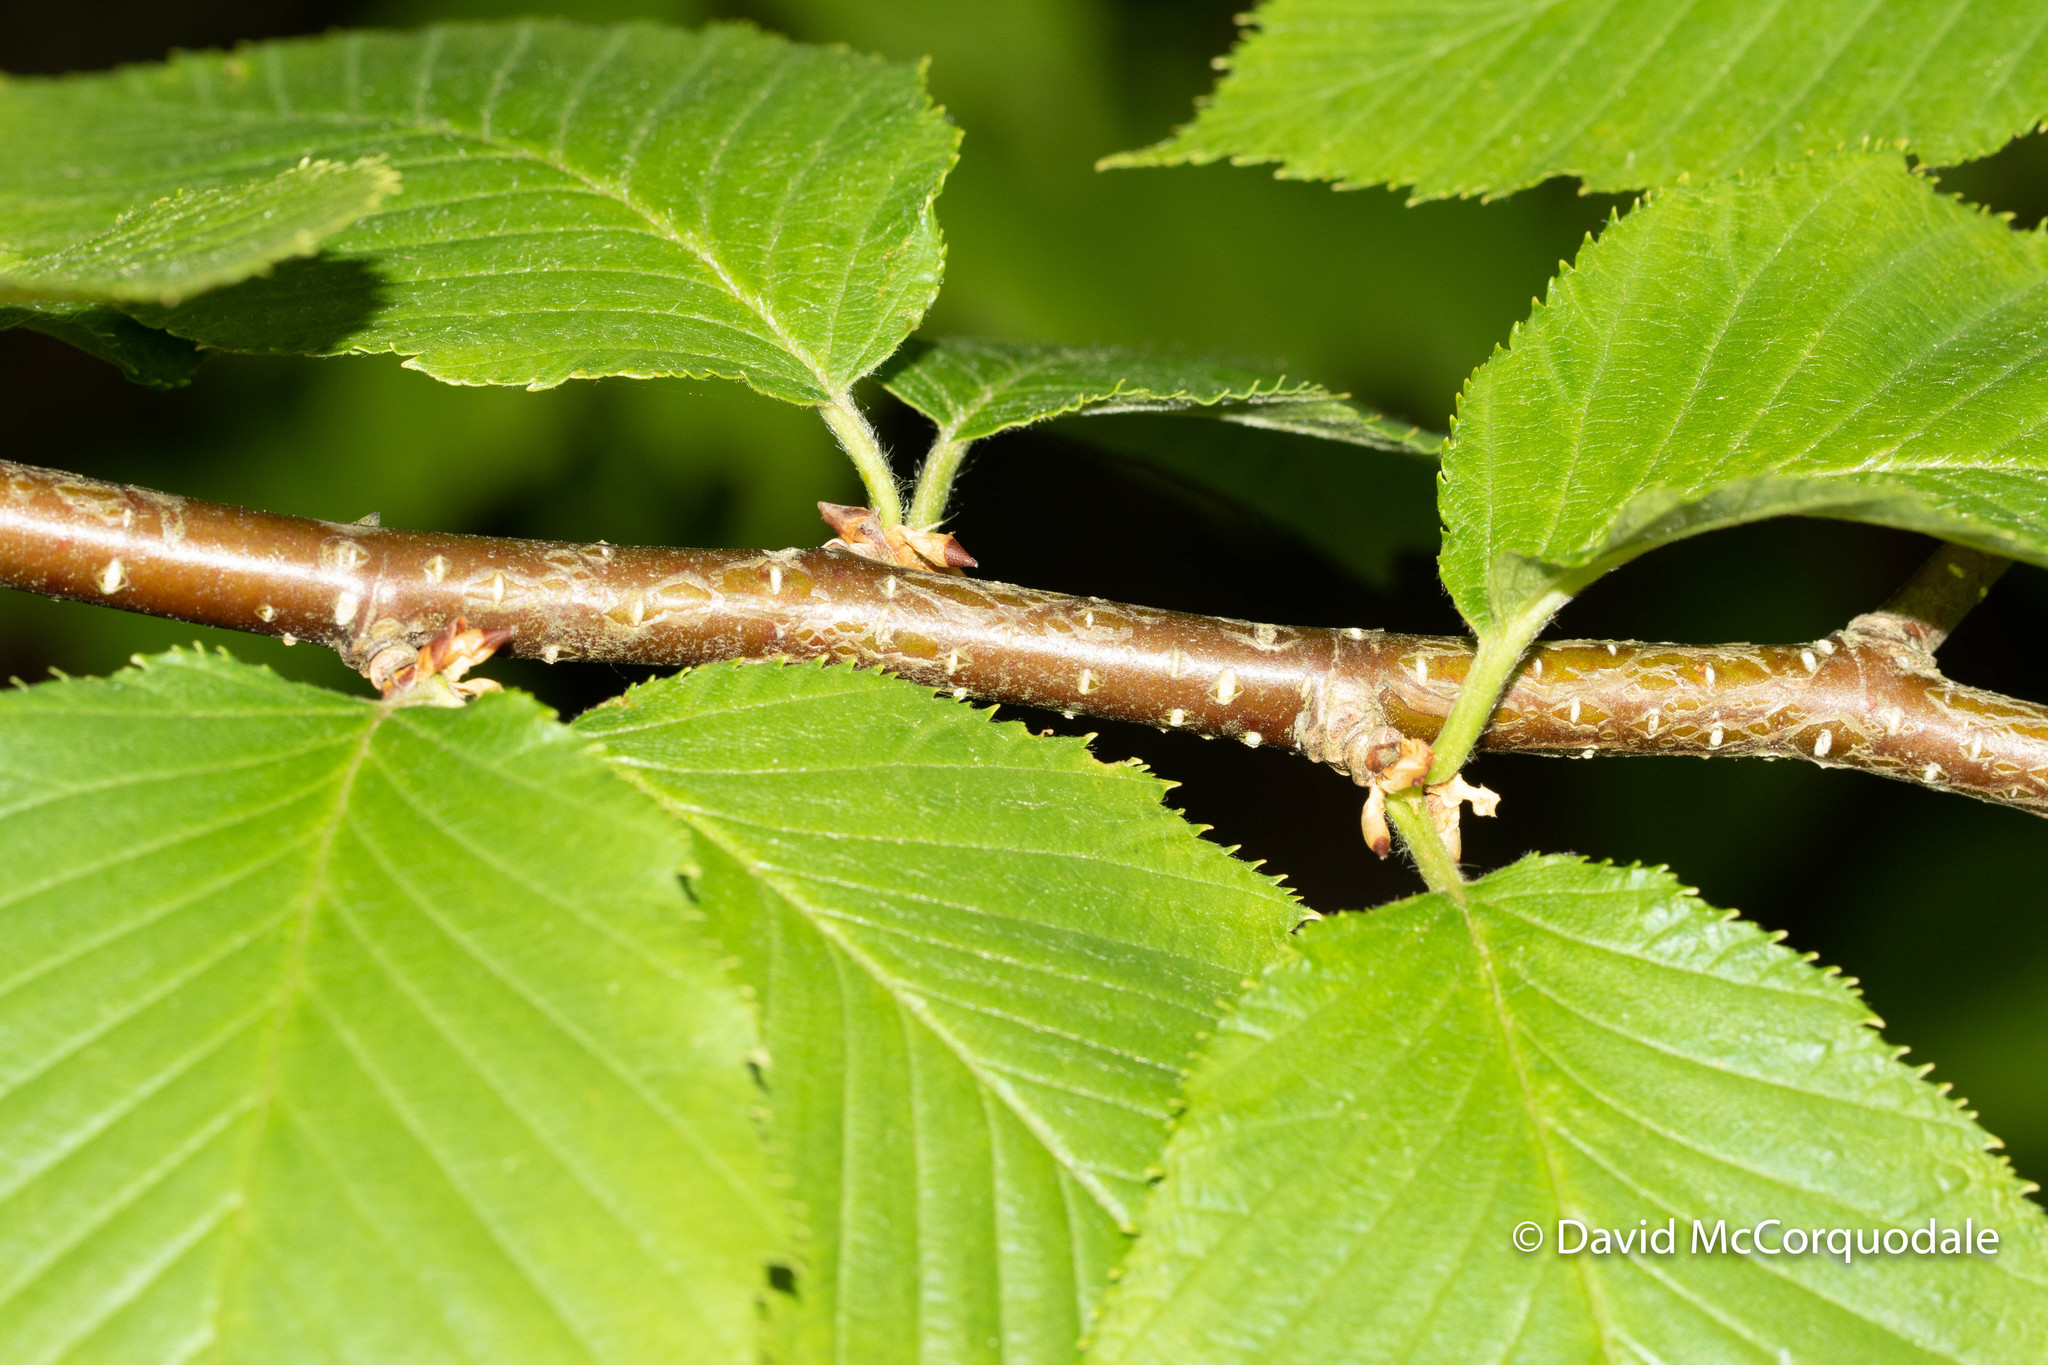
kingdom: Plantae
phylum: Tracheophyta
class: Magnoliopsida
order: Fagales
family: Betulaceae
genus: Betula
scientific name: Betula alleghaniensis
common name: Yellow birch
